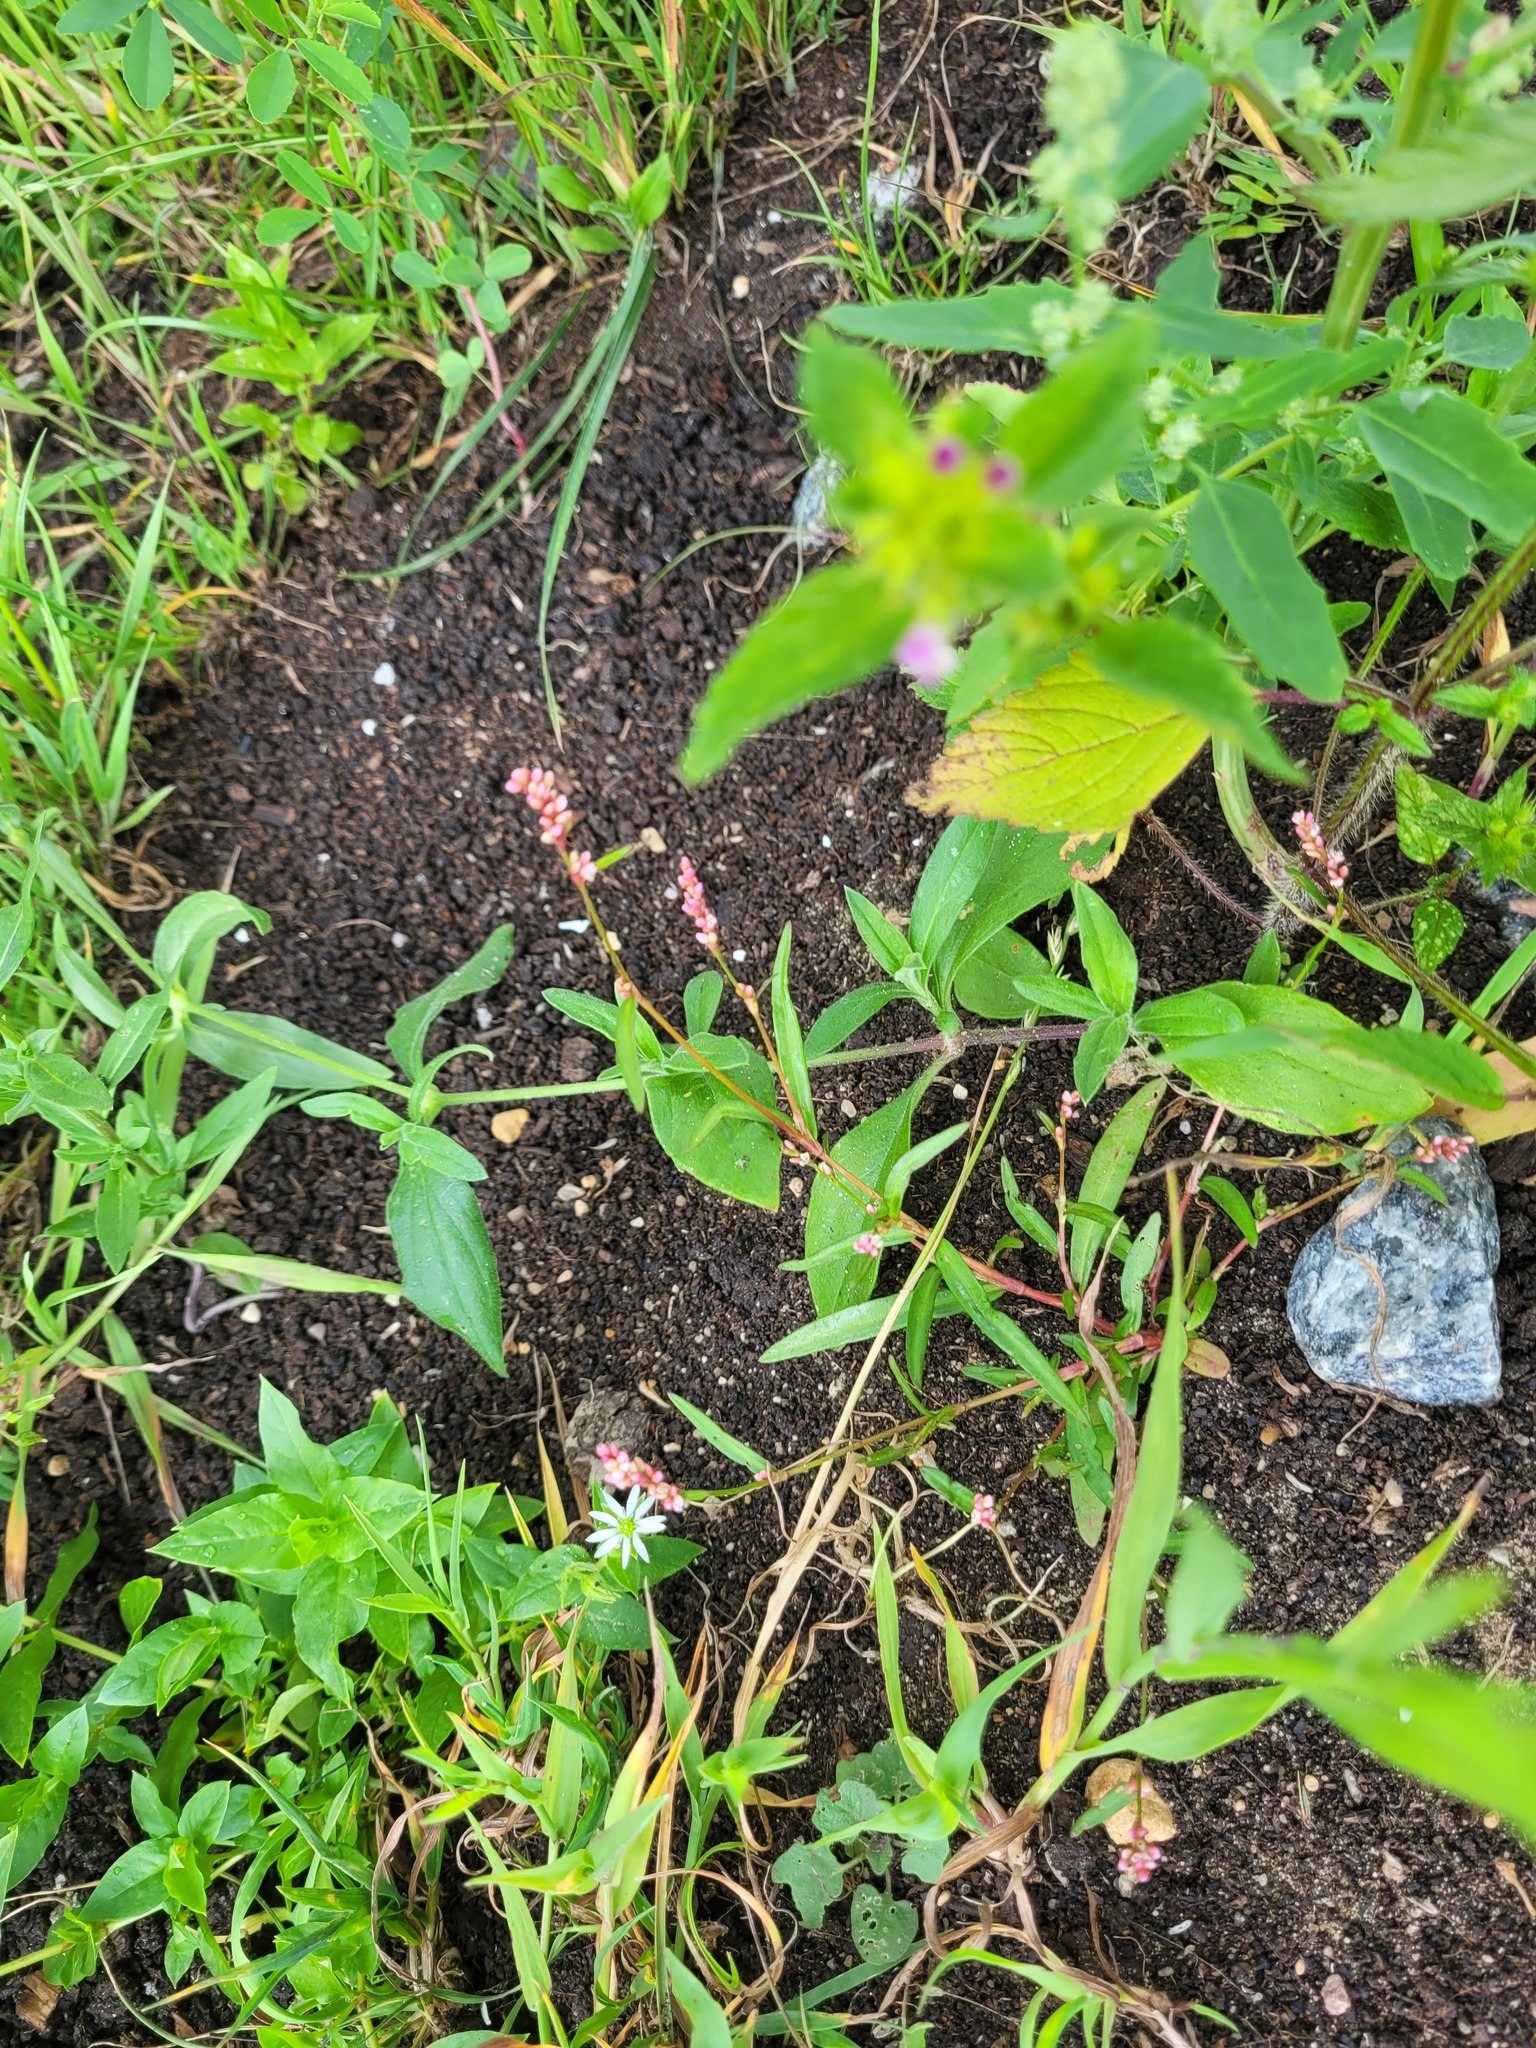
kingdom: Plantae
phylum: Tracheophyta
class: Magnoliopsida
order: Caryophyllales
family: Polygonaceae
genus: Persicaria
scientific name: Persicaria maculosa
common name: Redshank
